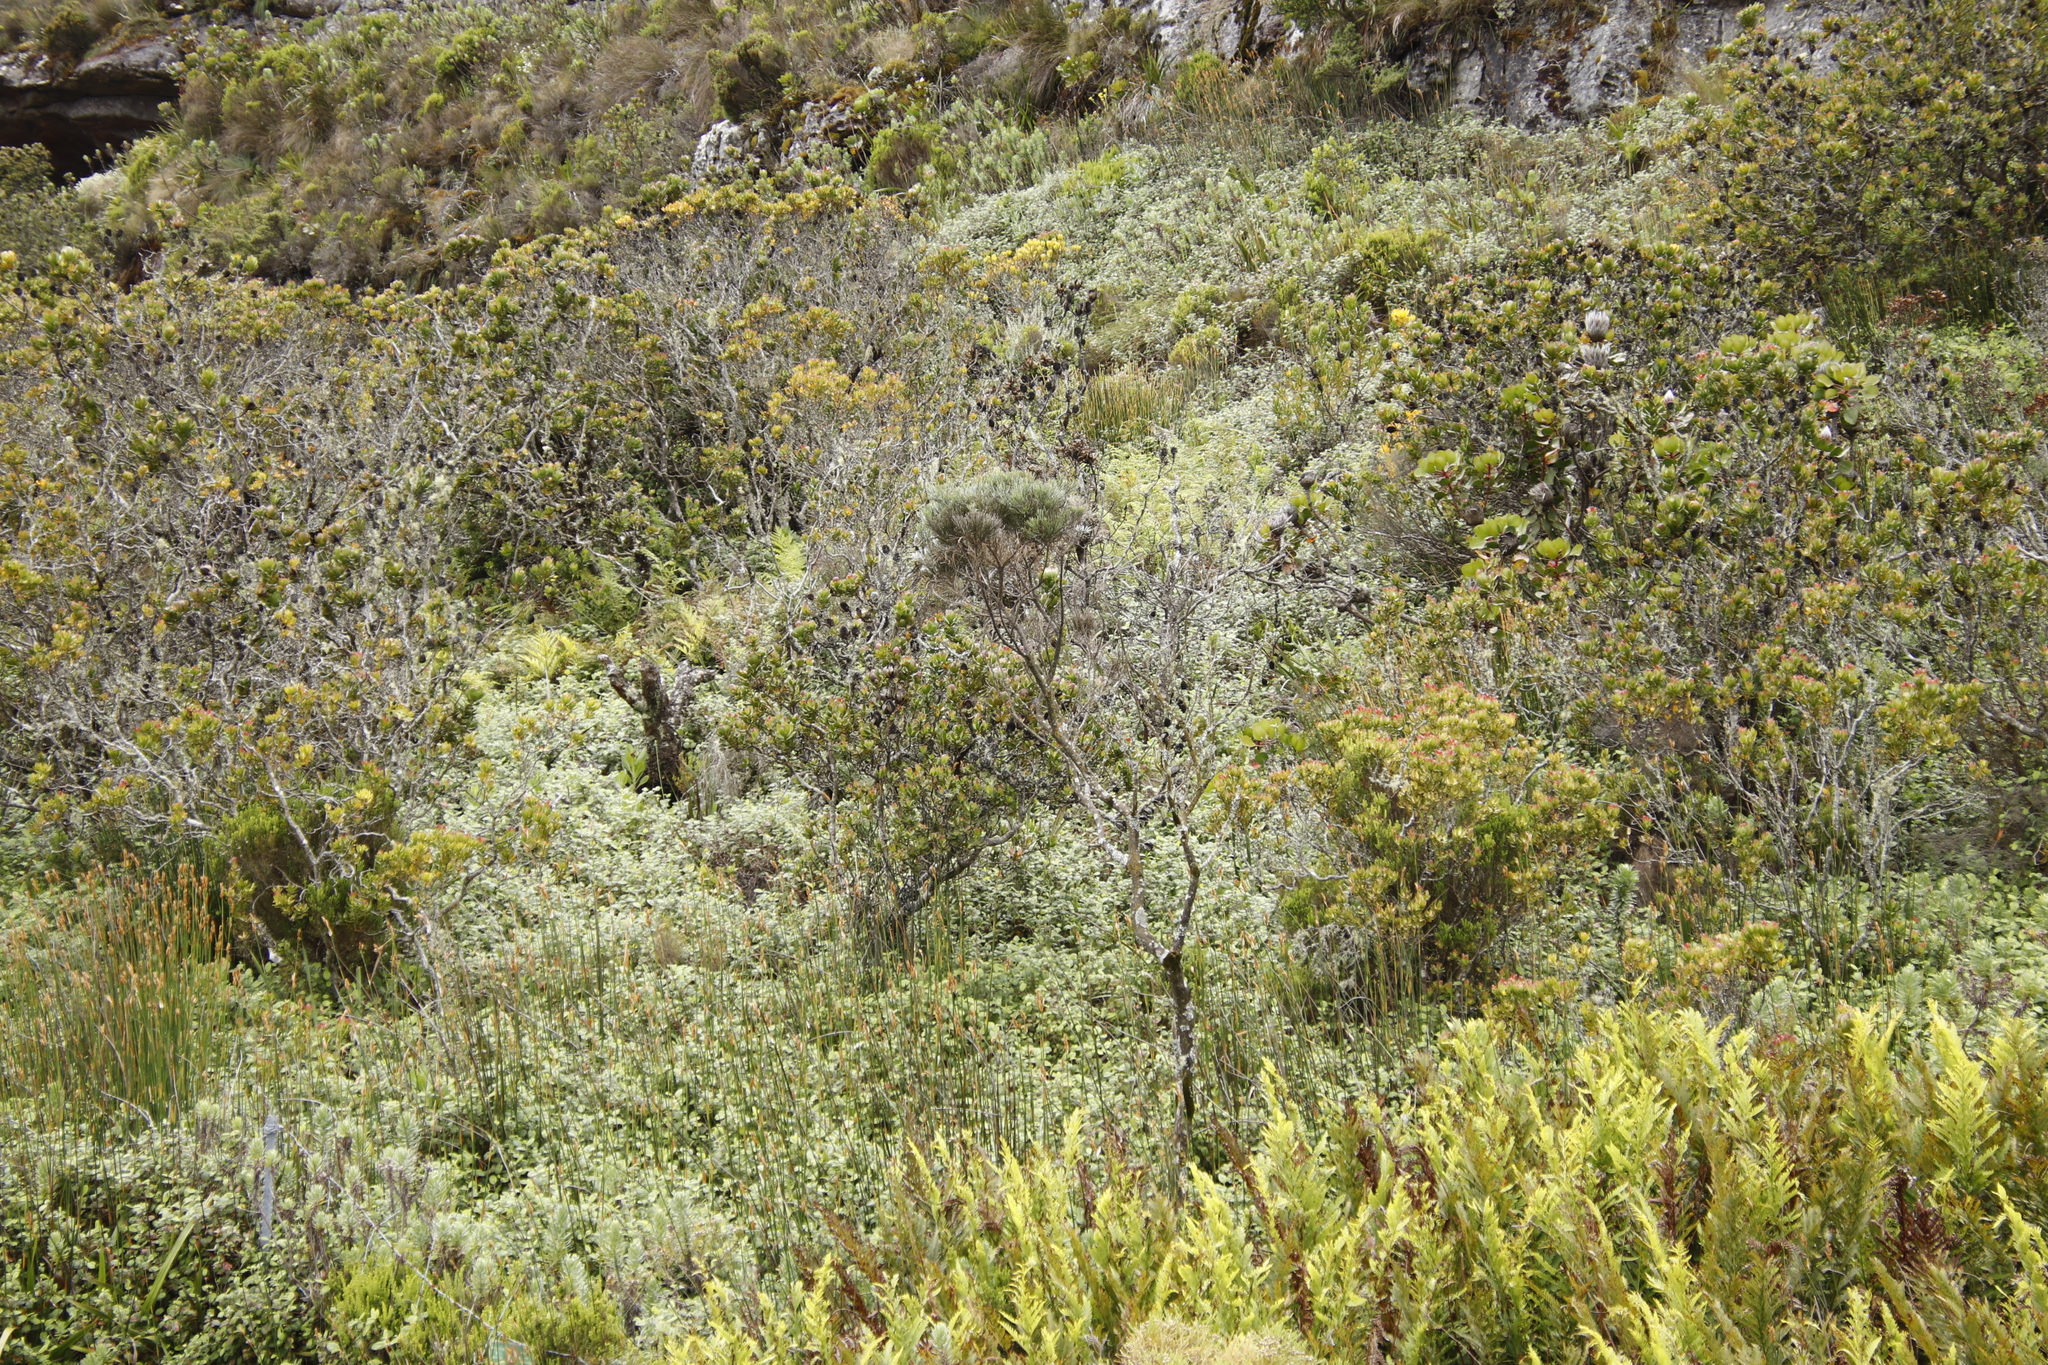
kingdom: Plantae
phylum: Tracheophyta
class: Magnoliopsida
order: Rosales
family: Rosaceae
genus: Cliffortia
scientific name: Cliffortia odorata
